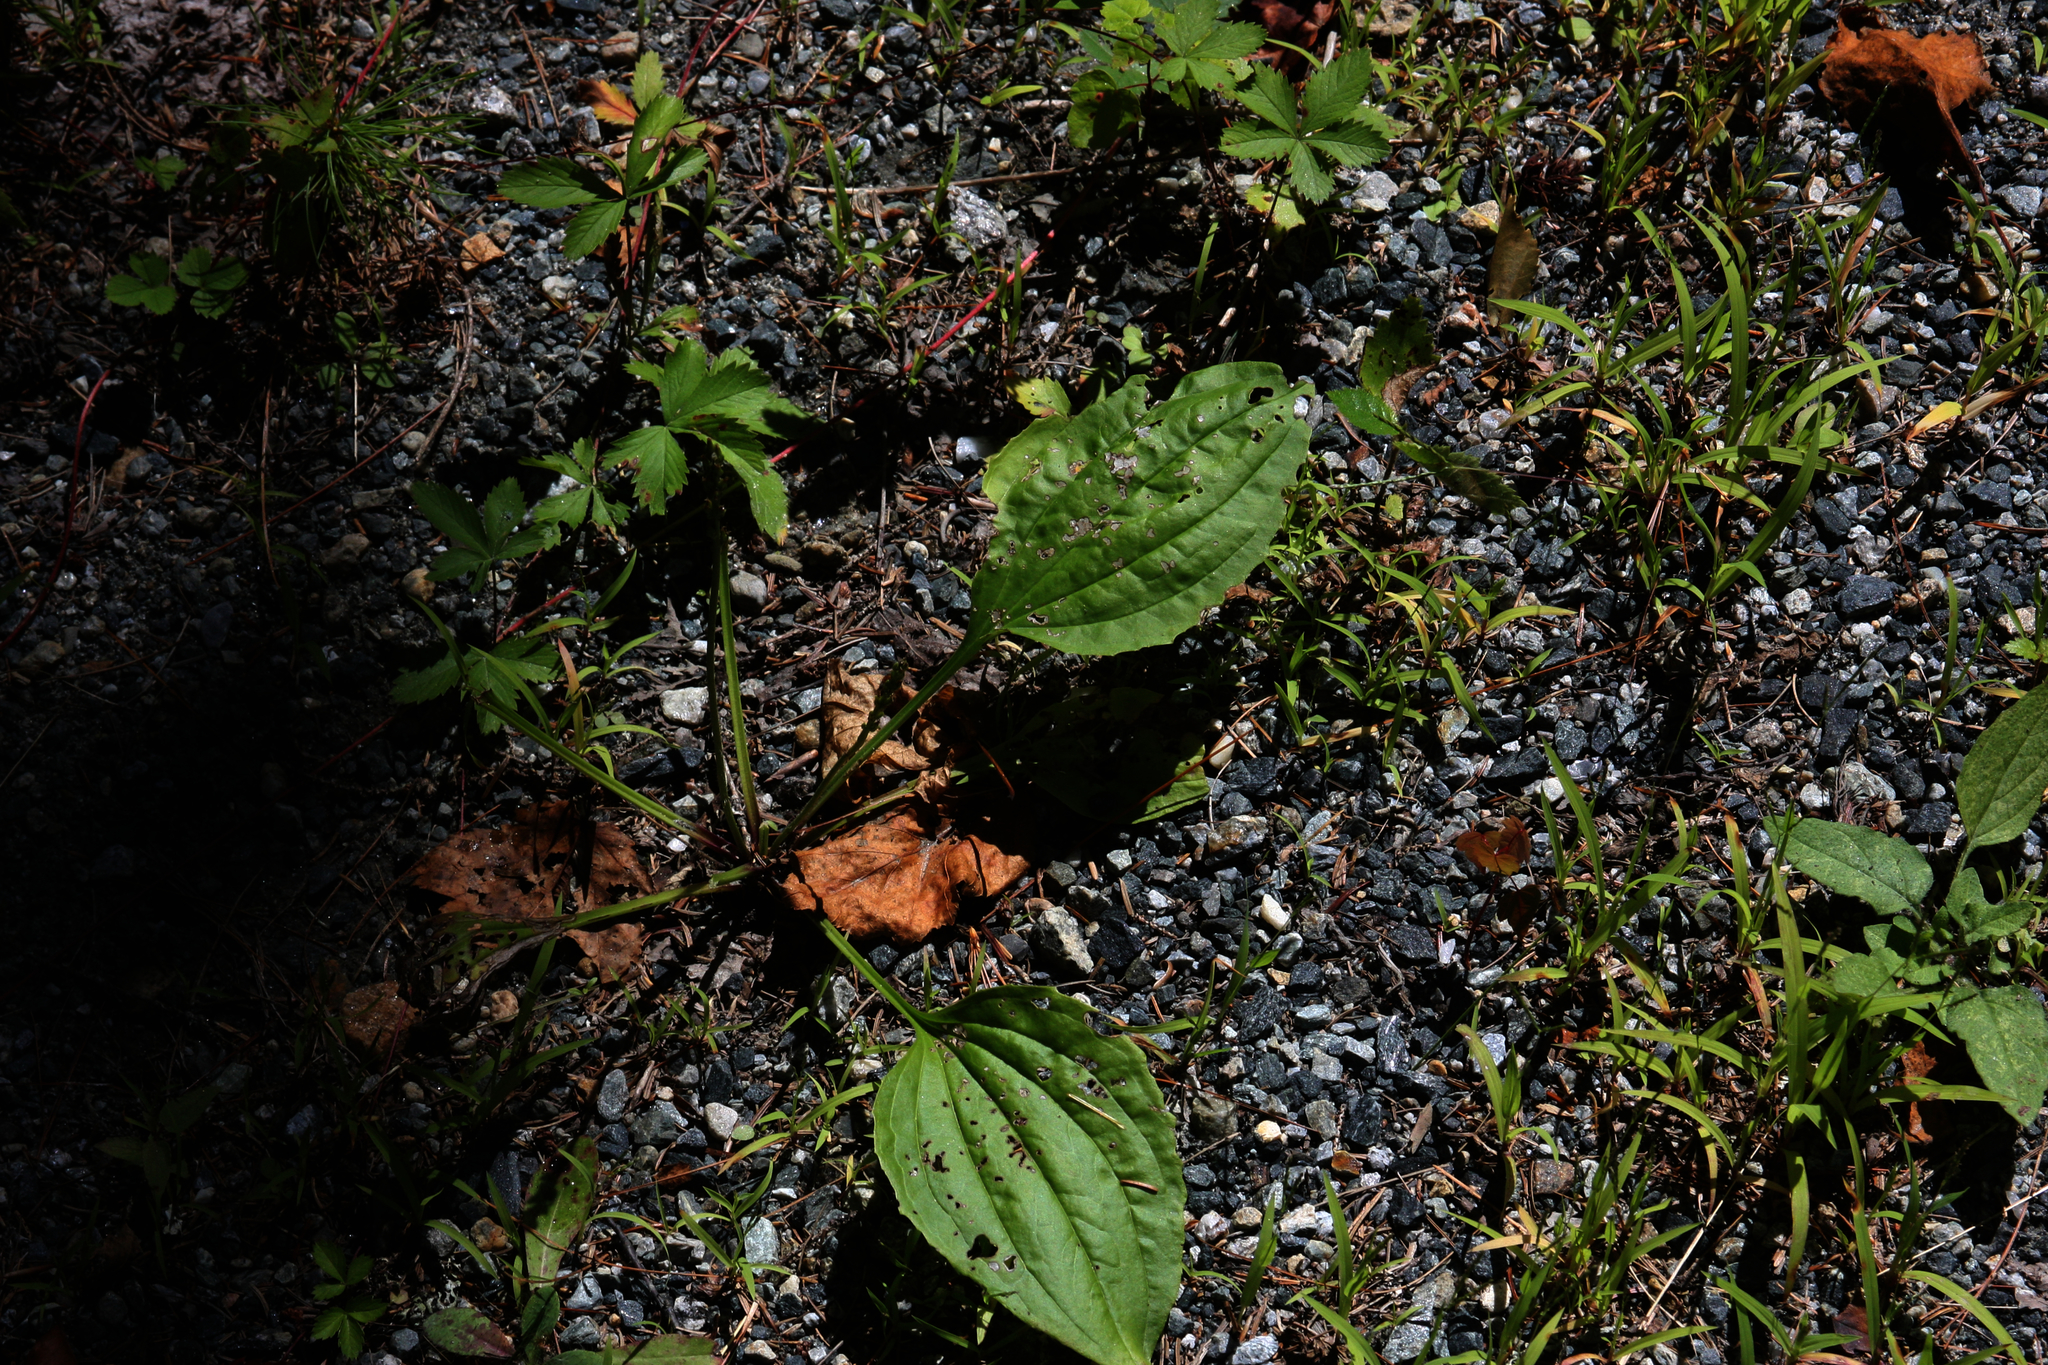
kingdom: Plantae
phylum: Tracheophyta
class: Magnoliopsida
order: Lamiales
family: Plantaginaceae
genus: Plantago
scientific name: Plantago major
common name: Common plantain
